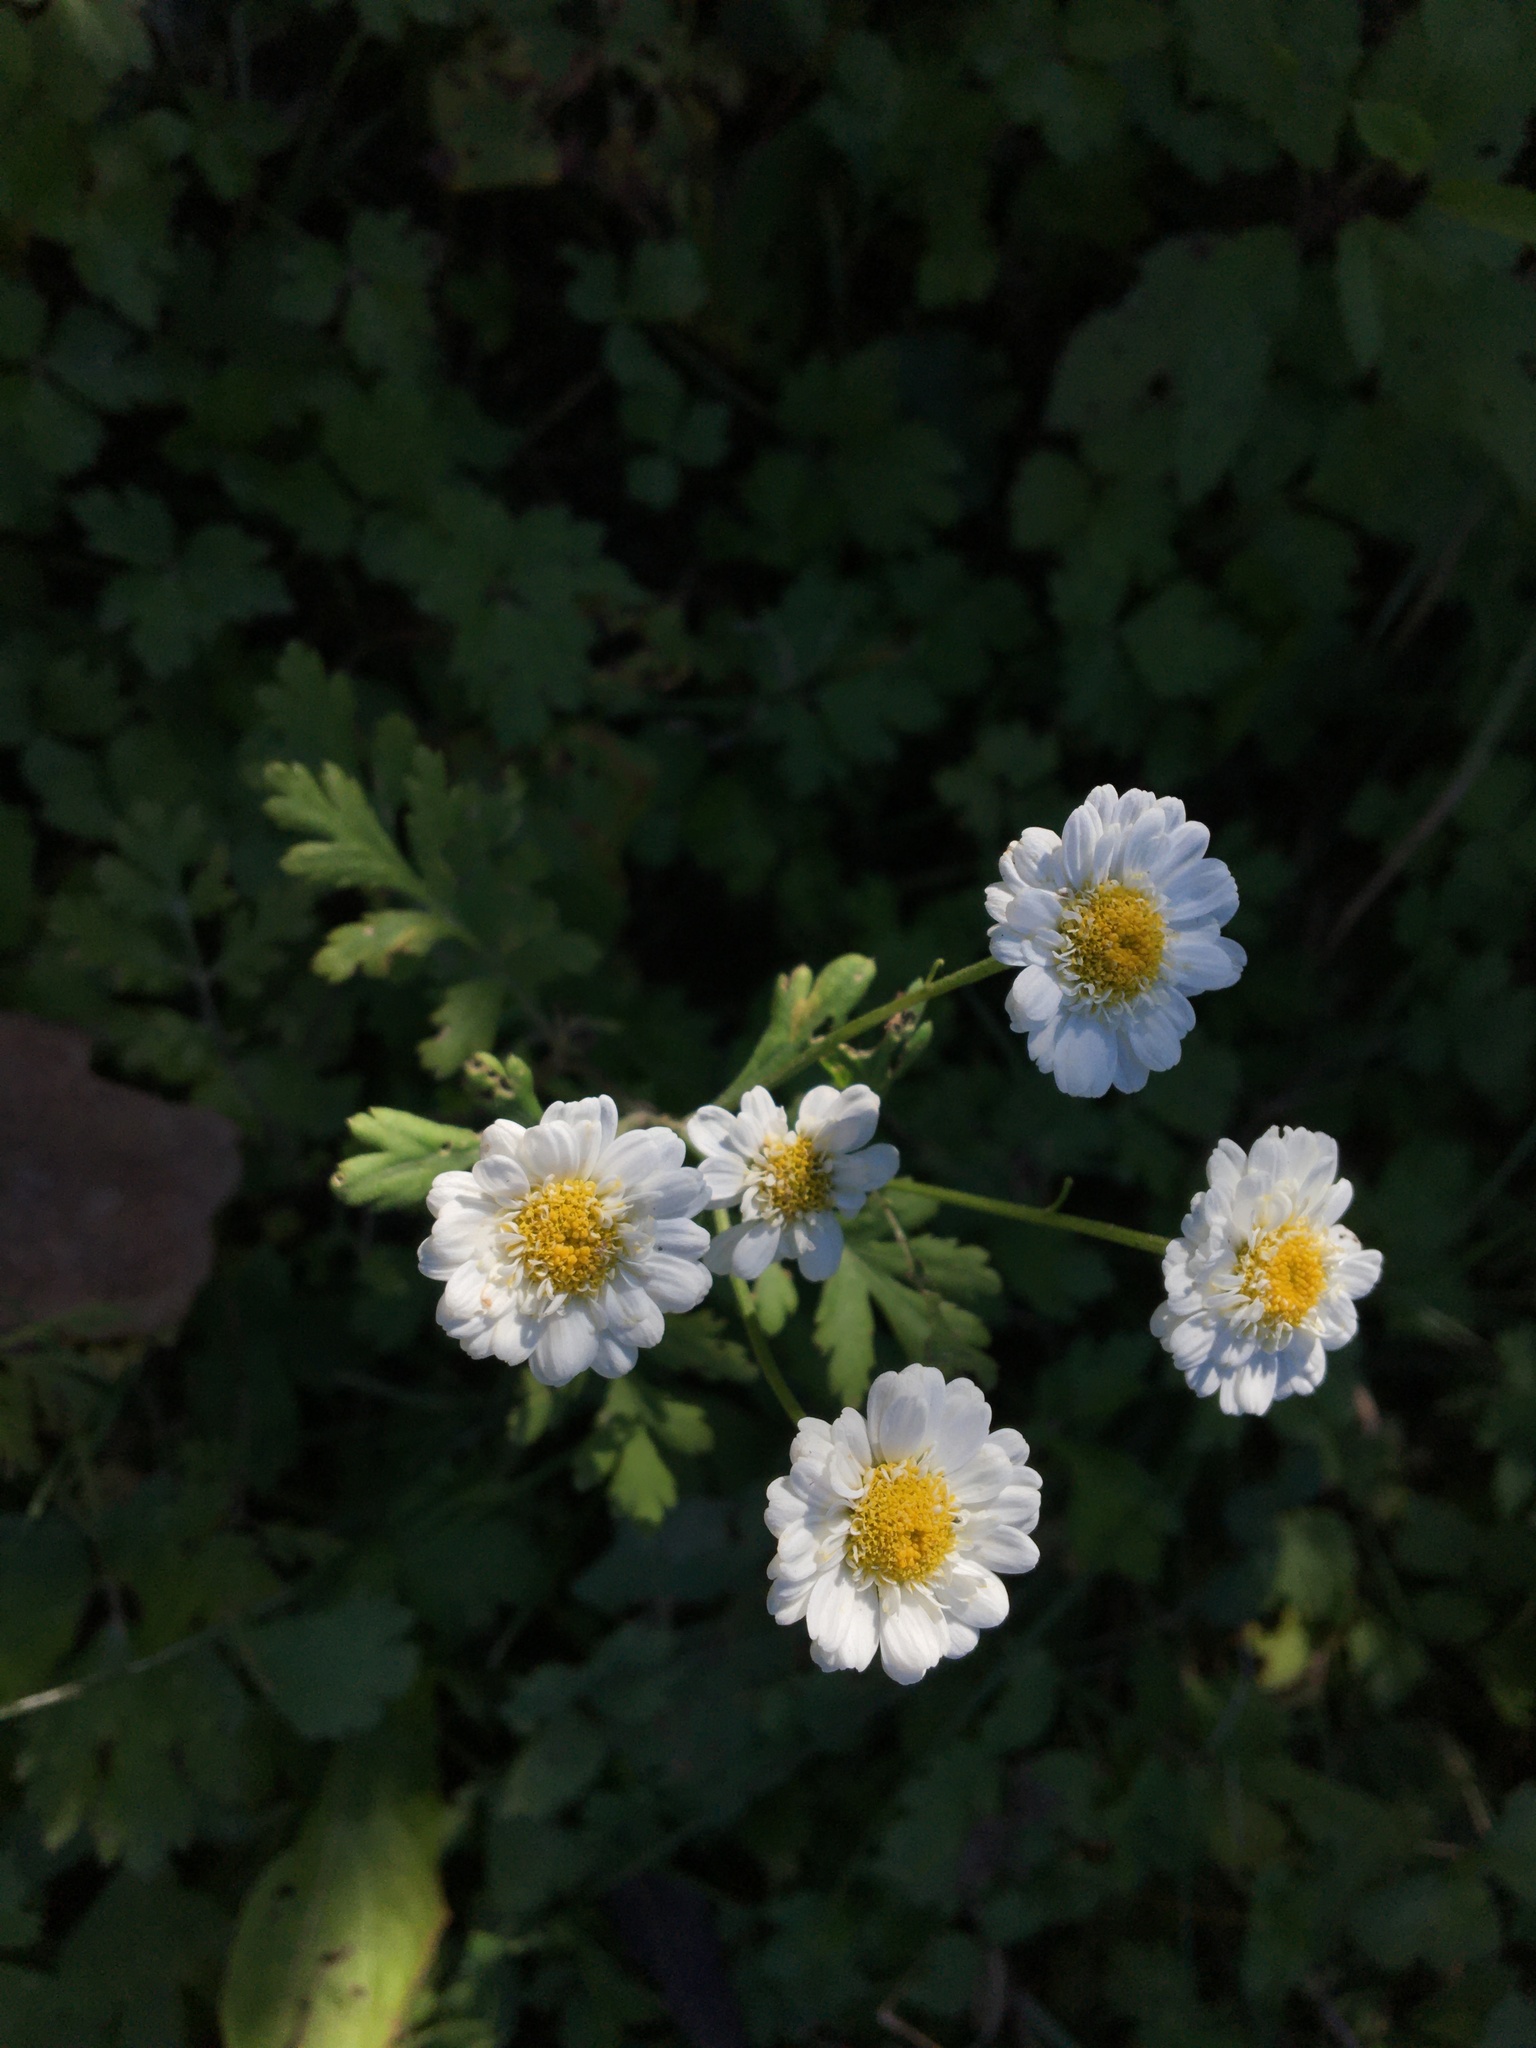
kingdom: Plantae
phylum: Tracheophyta
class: Magnoliopsida
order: Asterales
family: Asteraceae
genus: Tanacetum
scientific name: Tanacetum parthenium
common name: Feverfew
